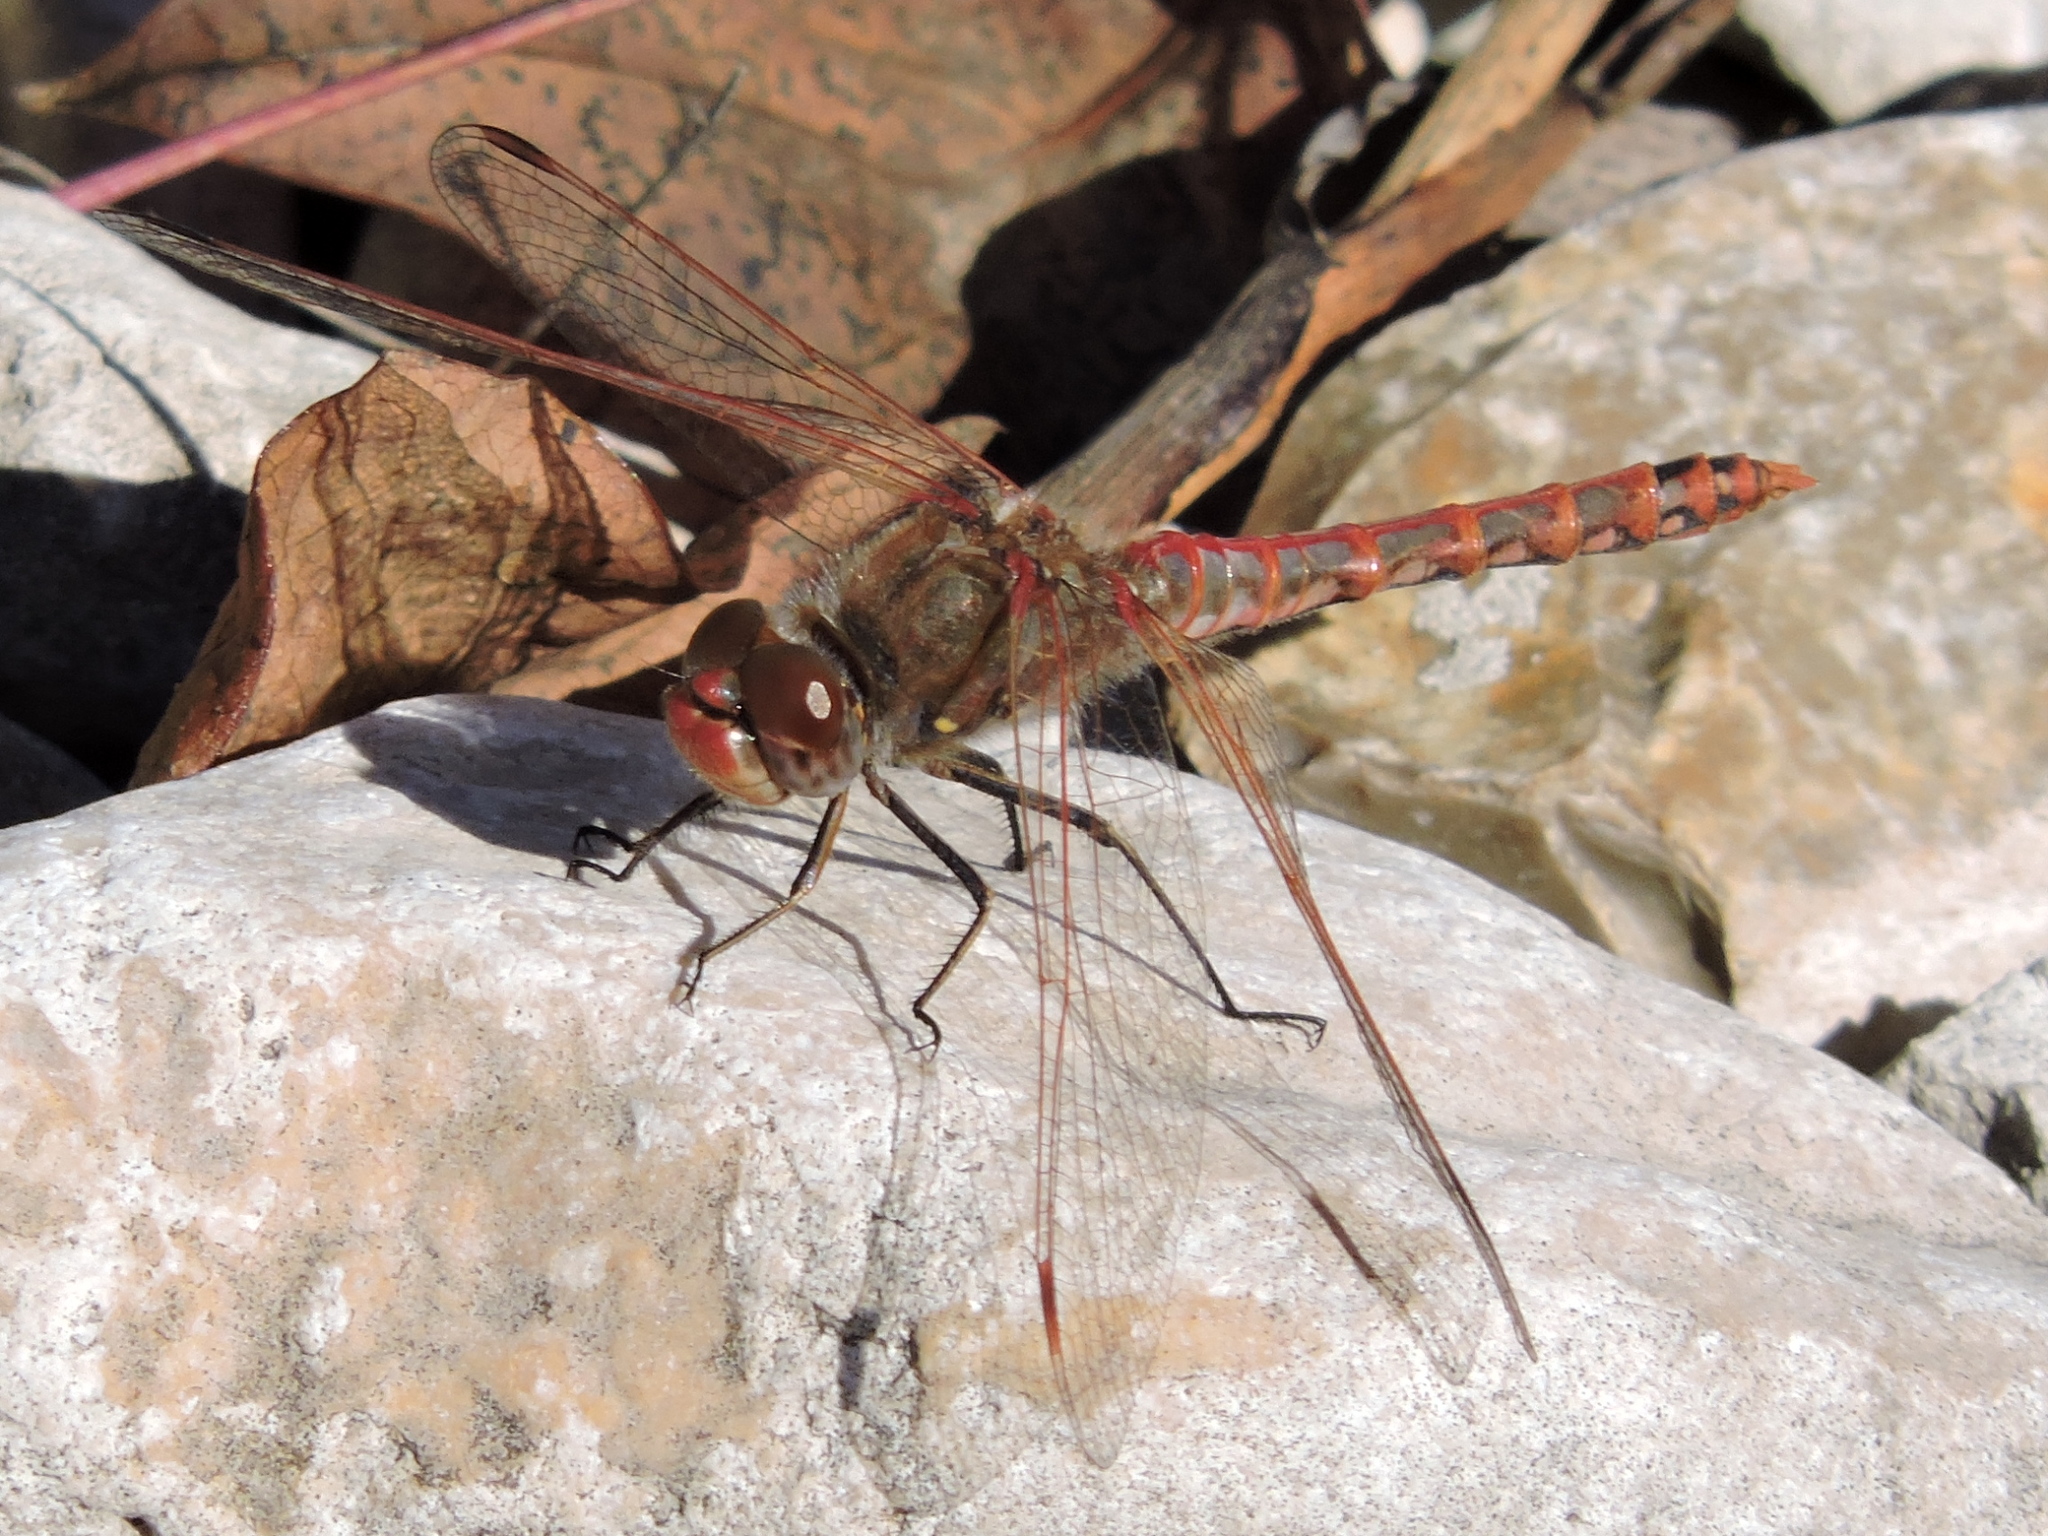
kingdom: Animalia
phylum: Arthropoda
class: Insecta
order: Odonata
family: Libellulidae
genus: Sympetrum
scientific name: Sympetrum corruptum
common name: Variegated meadowhawk
